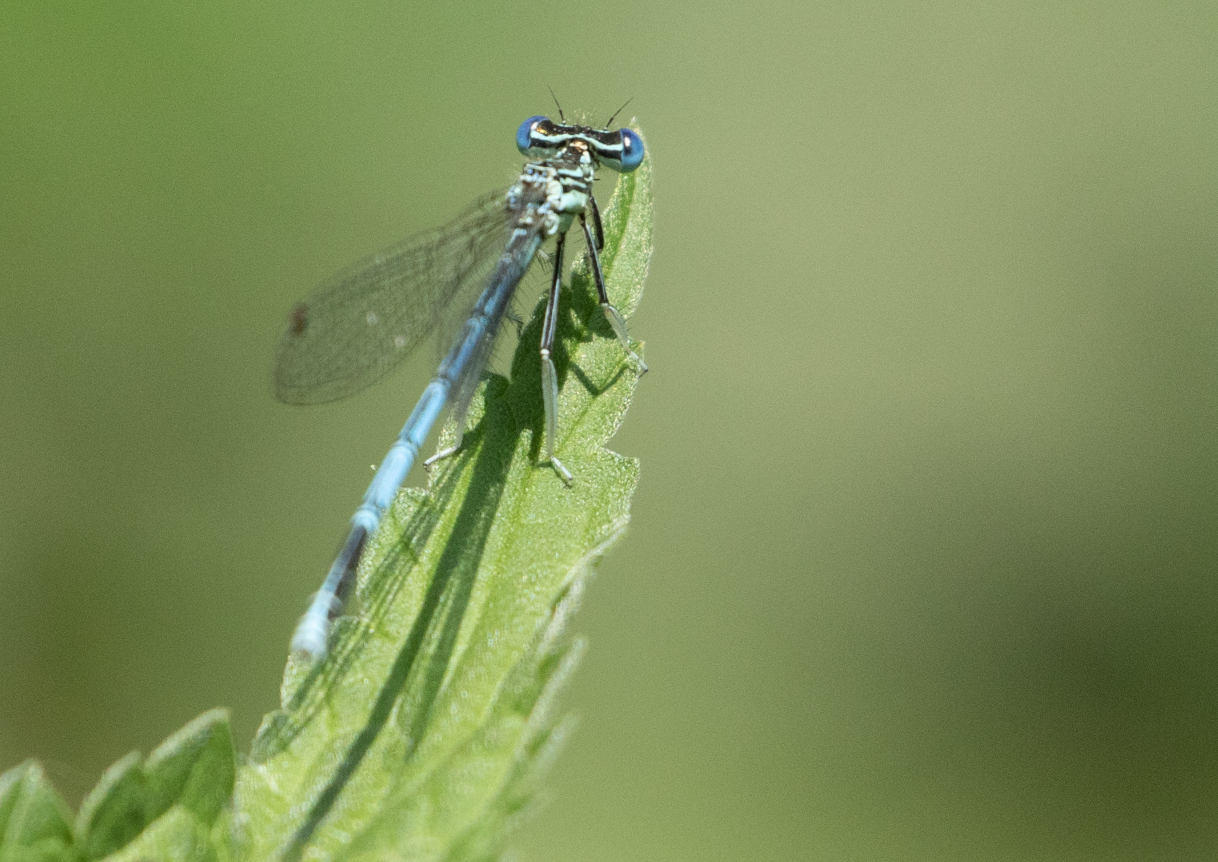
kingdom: Animalia
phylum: Arthropoda
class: Insecta
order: Odonata
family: Platycnemididae
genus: Platycnemis
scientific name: Platycnemis pennipes
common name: White-legged damselfly
